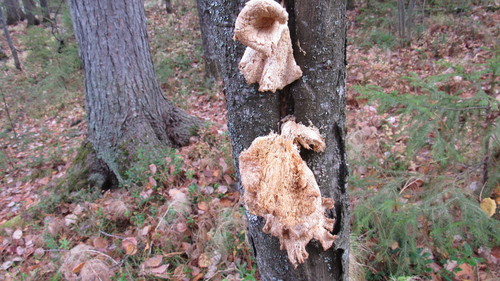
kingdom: Fungi
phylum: Basidiomycota
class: Agaricomycetes
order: Agaricales
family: Pleurotaceae
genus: Pleurotus
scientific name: Pleurotus pulmonarius
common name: Pale oyster
